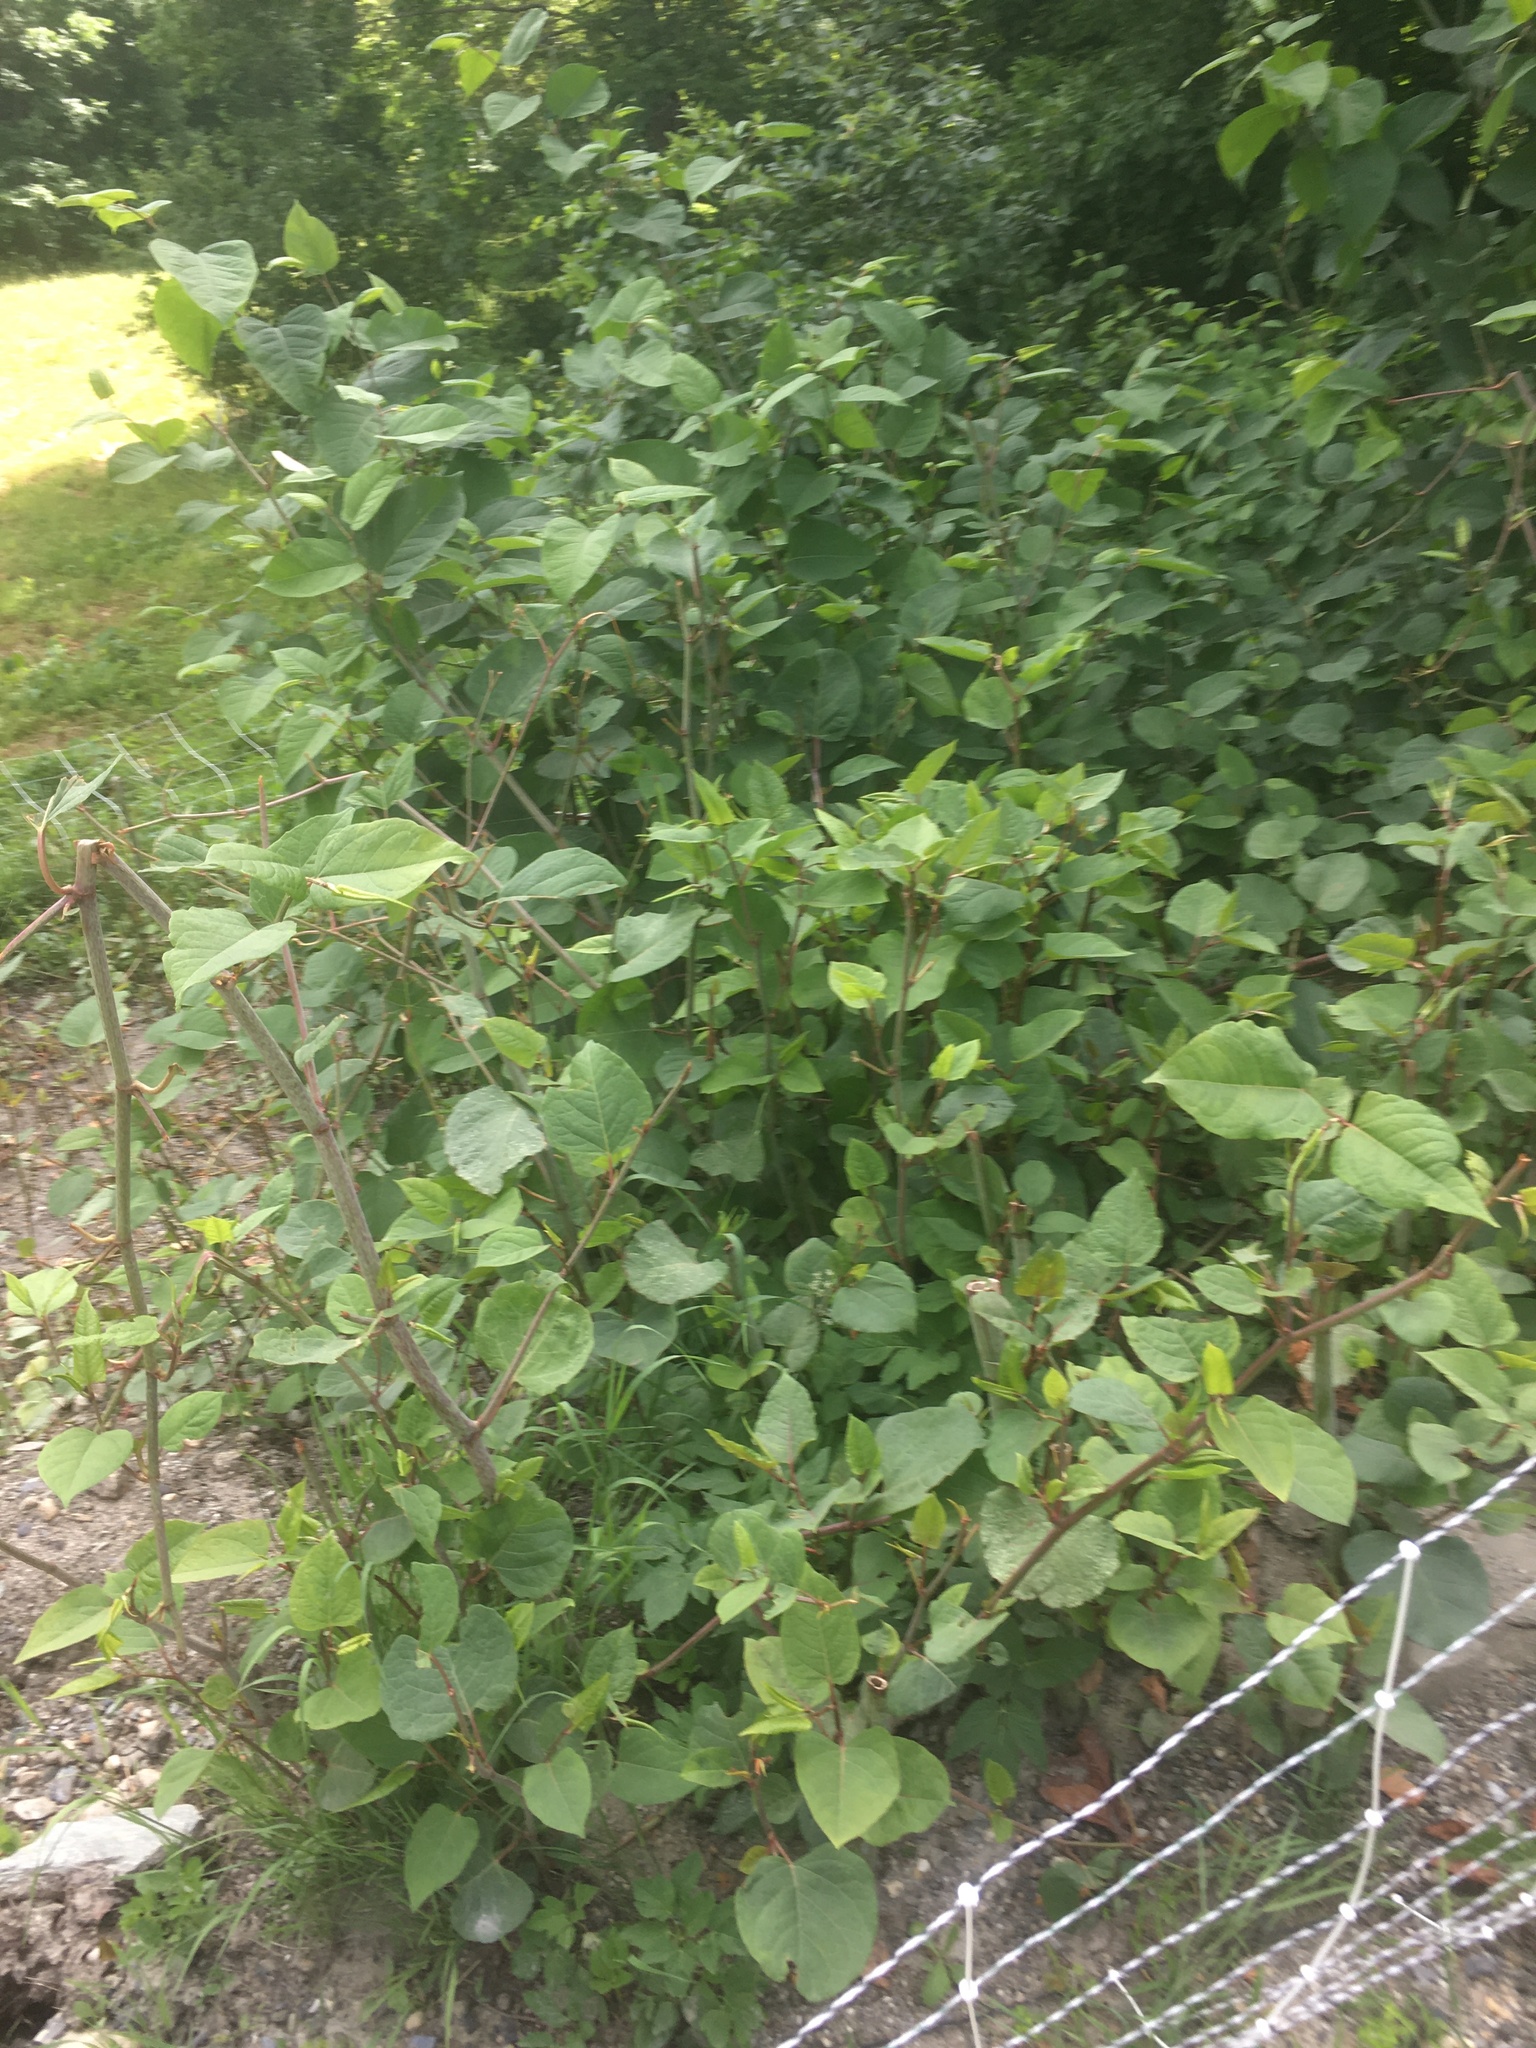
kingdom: Plantae
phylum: Tracheophyta
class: Magnoliopsida
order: Caryophyllales
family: Polygonaceae
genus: Reynoutria
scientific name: Reynoutria japonica
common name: Japanese knotweed
